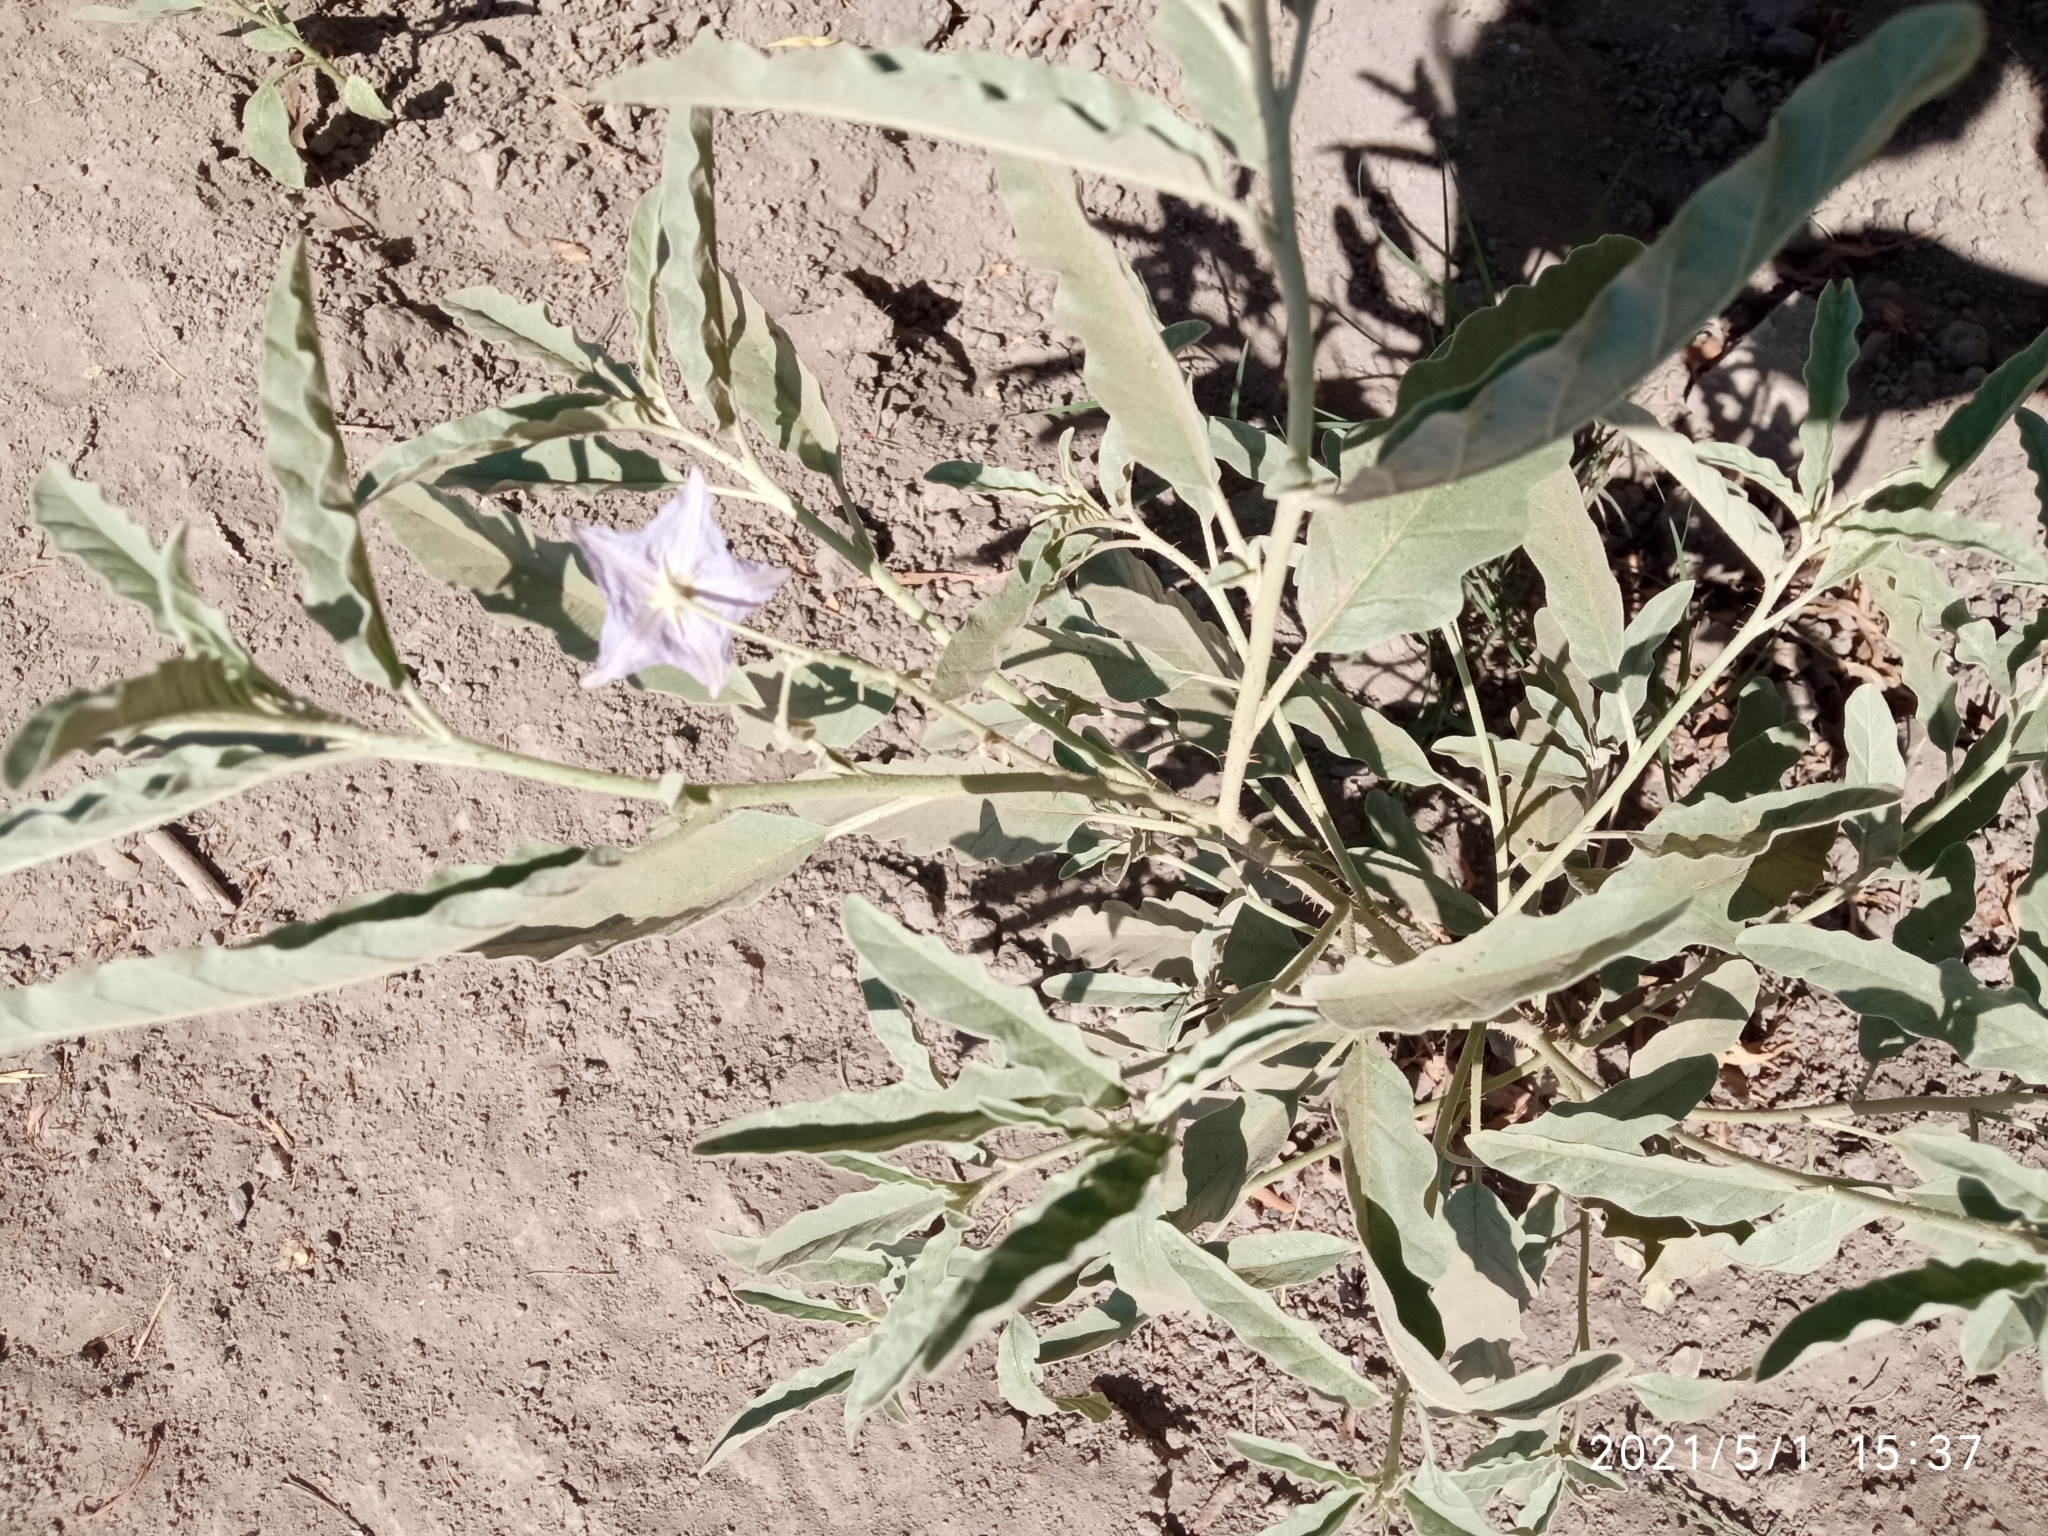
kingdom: Plantae
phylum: Tracheophyta
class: Magnoliopsida
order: Solanales
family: Solanaceae
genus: Solanum
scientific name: Solanum elaeagnifolium
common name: Silverleaf nightshade
